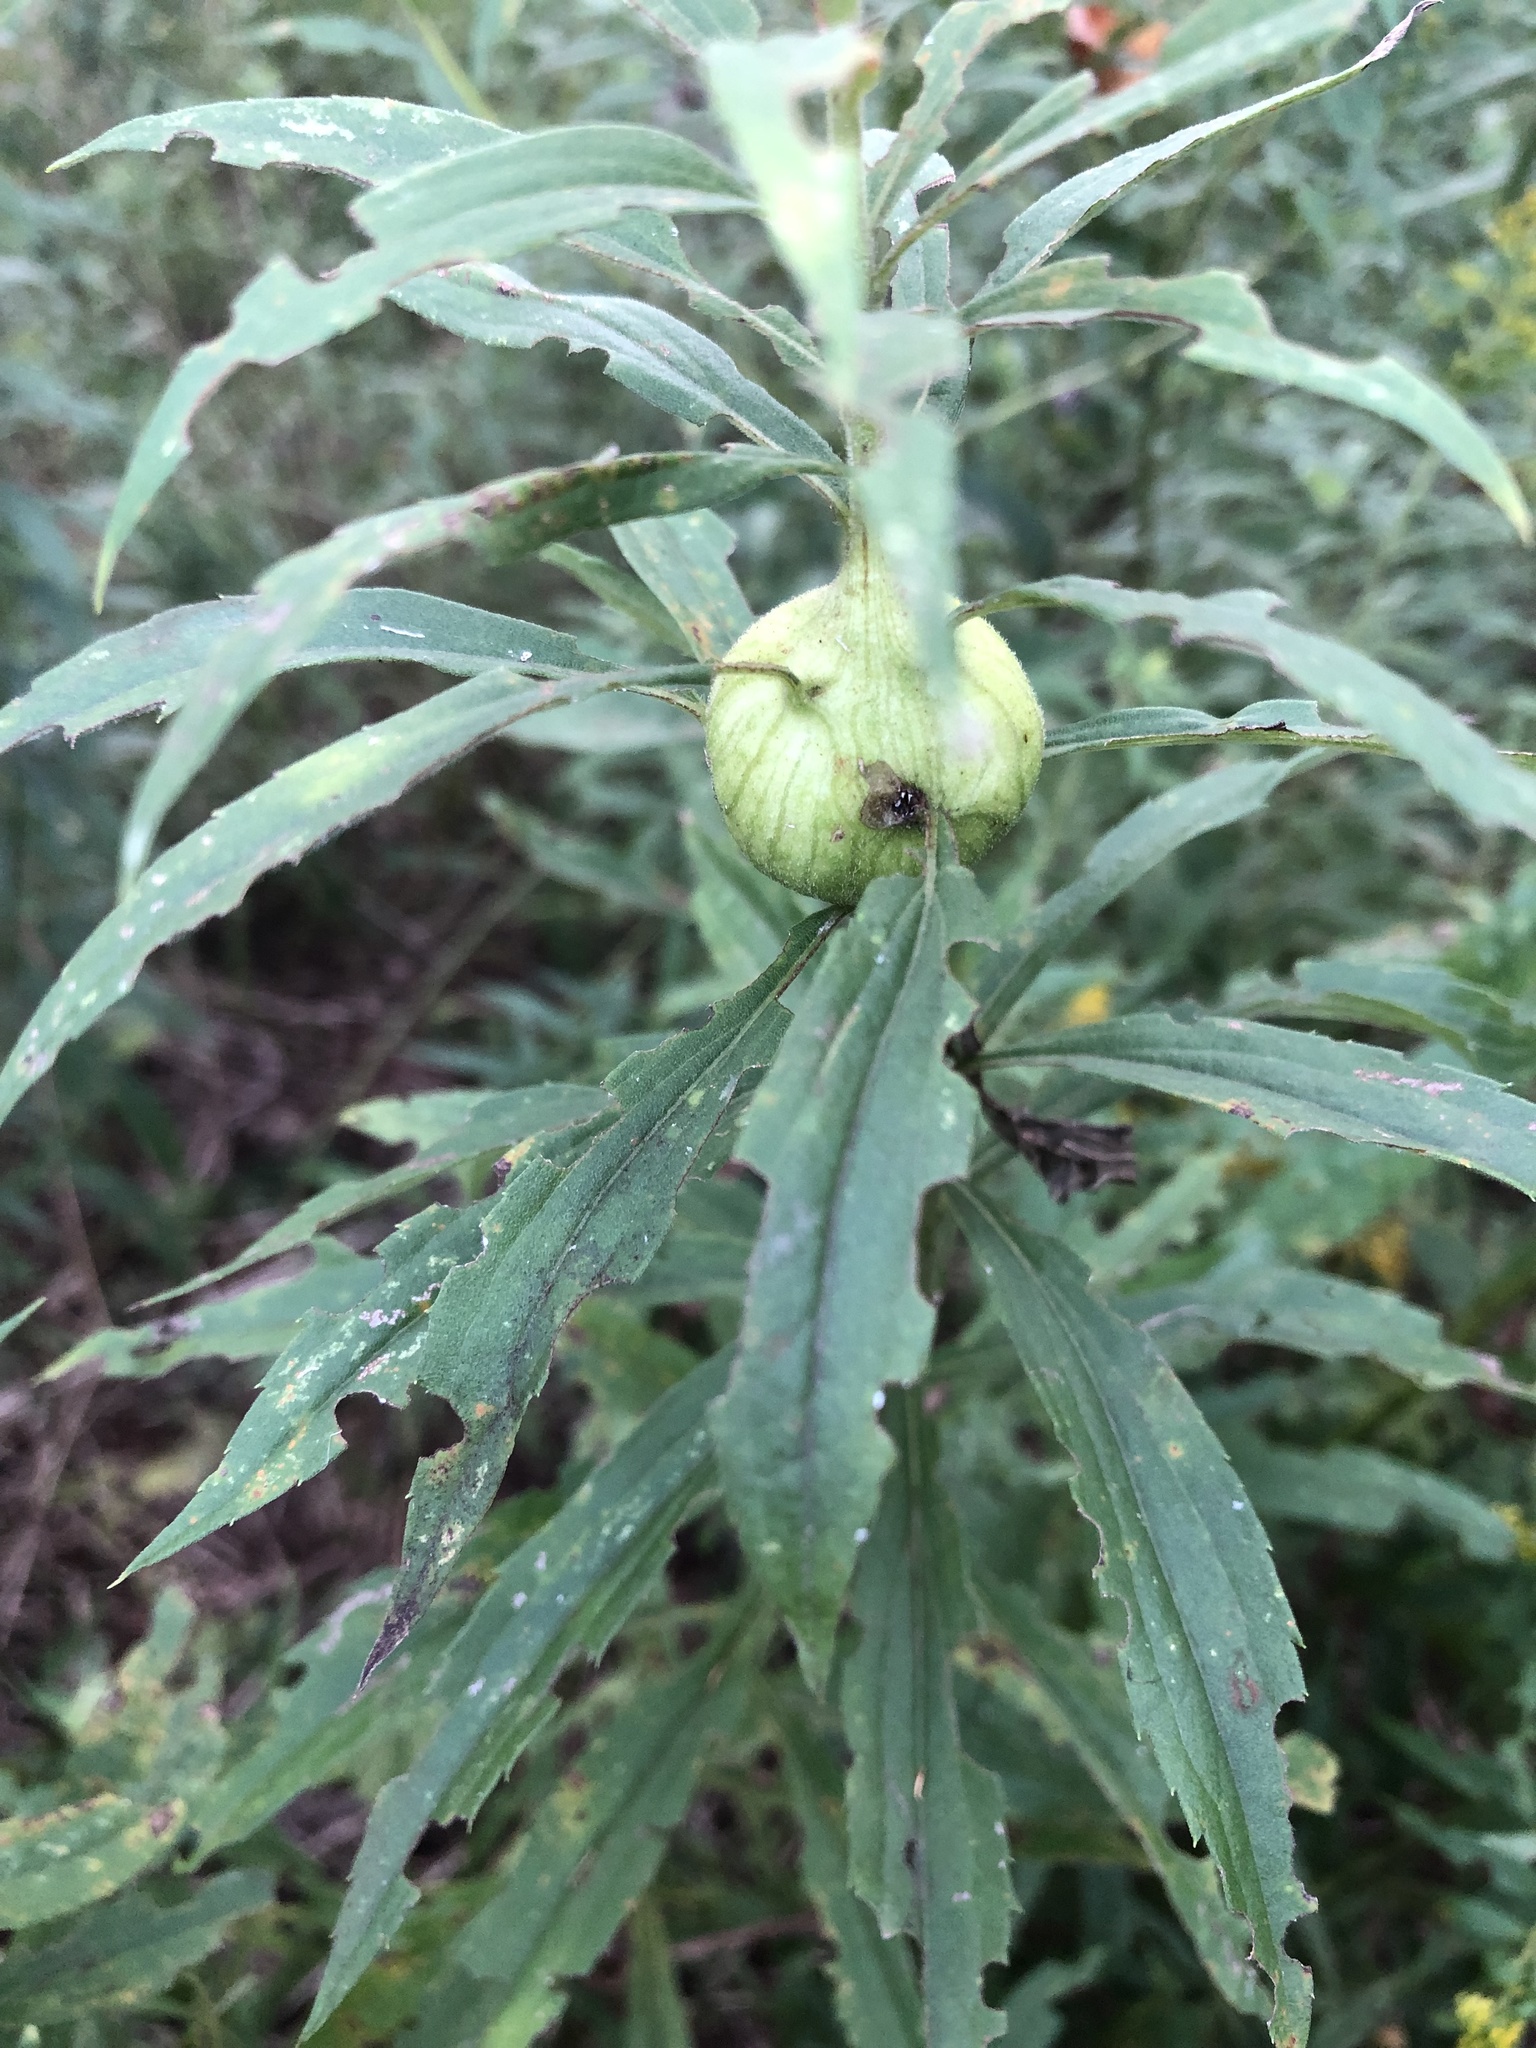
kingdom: Animalia
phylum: Arthropoda
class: Insecta
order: Diptera
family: Tephritidae
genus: Eurosta
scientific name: Eurosta solidaginis
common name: Goldenrod gall fly
